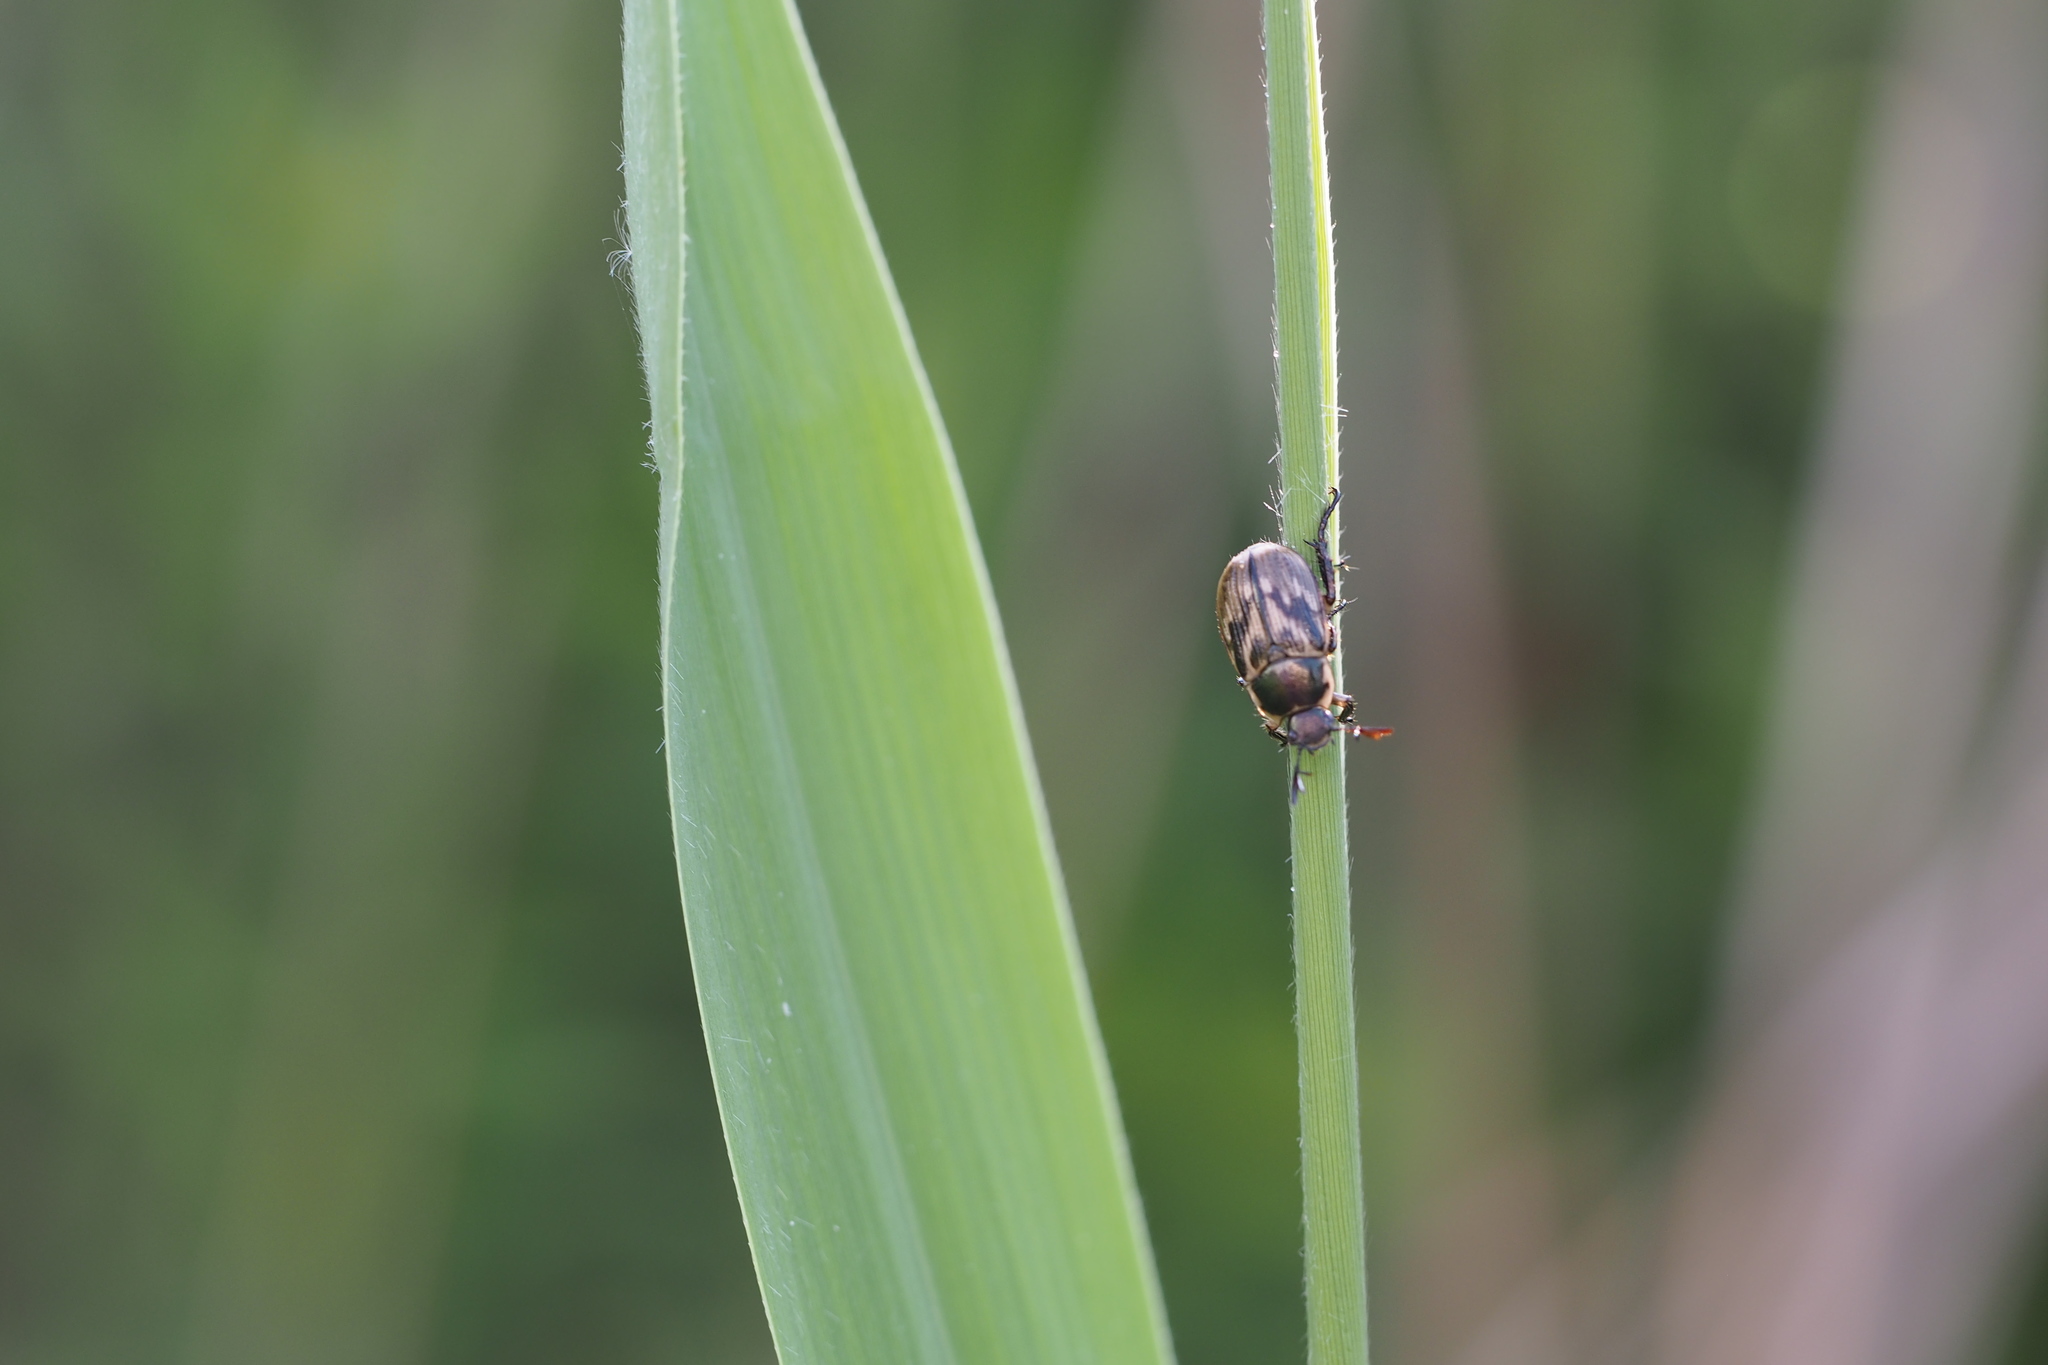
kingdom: Animalia
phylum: Arthropoda
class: Insecta
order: Coleoptera
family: Scarabaeidae
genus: Exomala
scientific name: Exomala orientalis
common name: Oriental beetle
